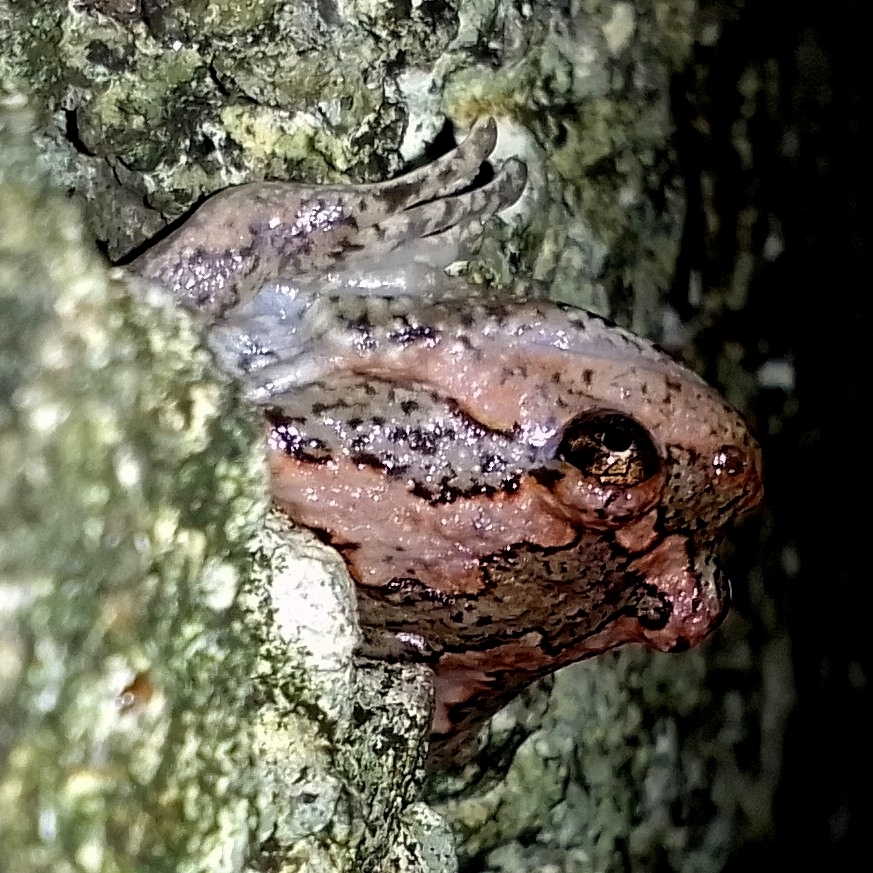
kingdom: Animalia
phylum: Chordata
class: Amphibia
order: Anura
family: Microhylidae
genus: Uperodon
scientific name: Uperodon taprobanicus
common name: Ceylon kaloula
